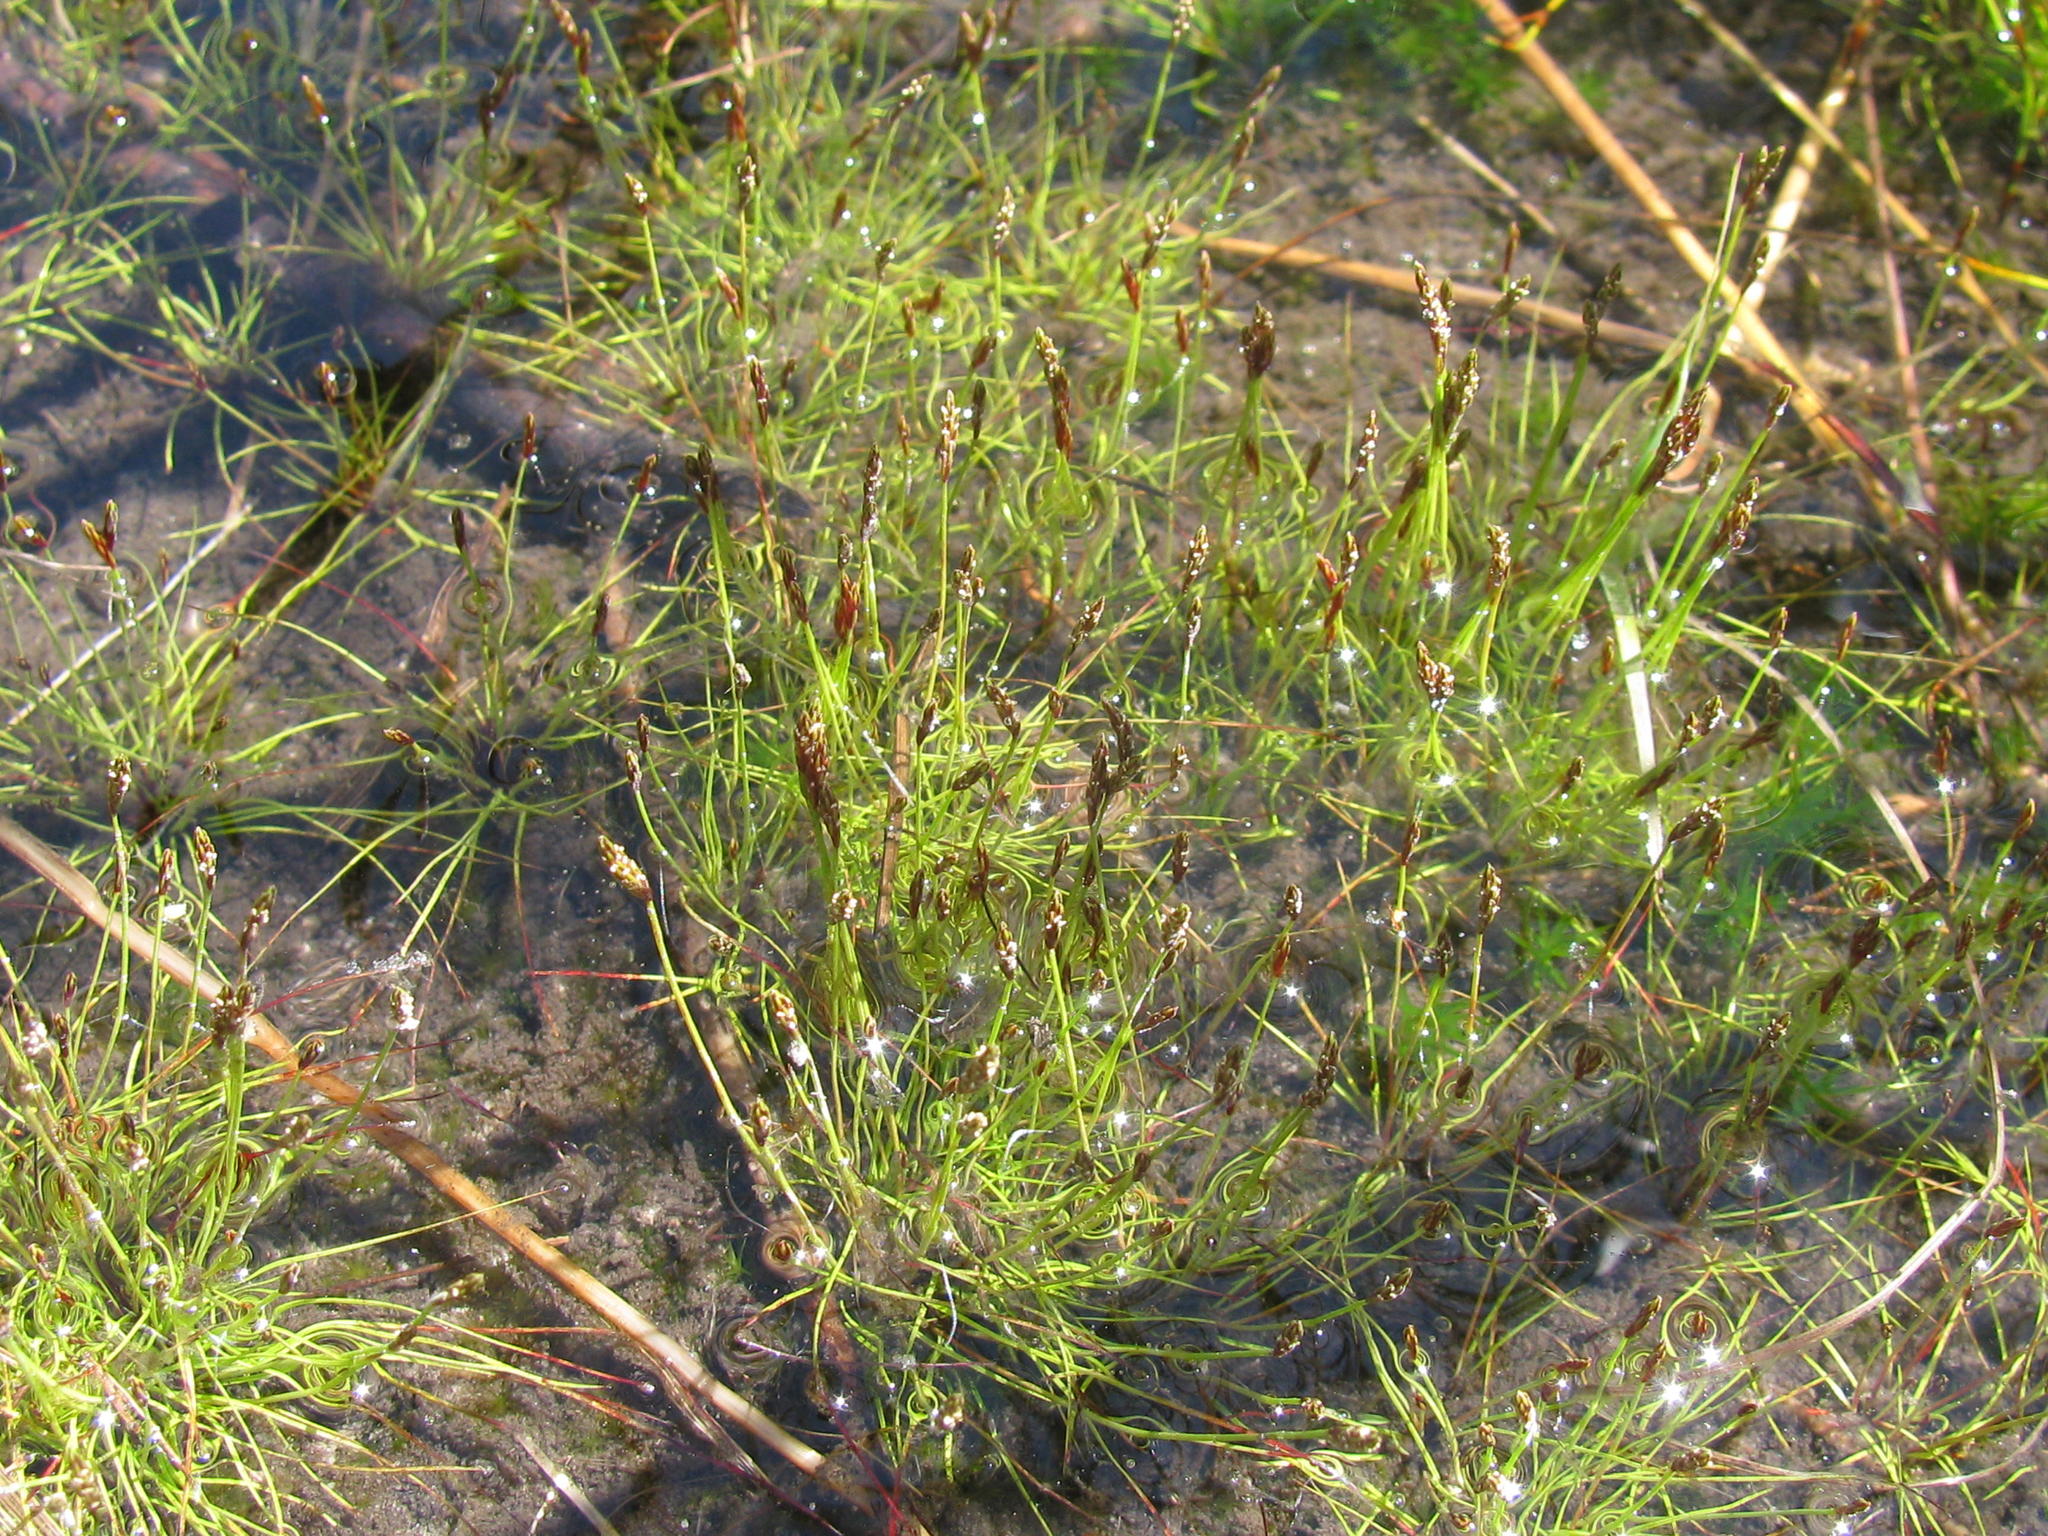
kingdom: Plantae
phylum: Tracheophyta
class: Liliopsida
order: Poales
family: Cyperaceae
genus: Isolepis
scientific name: Isolepis pusilla
